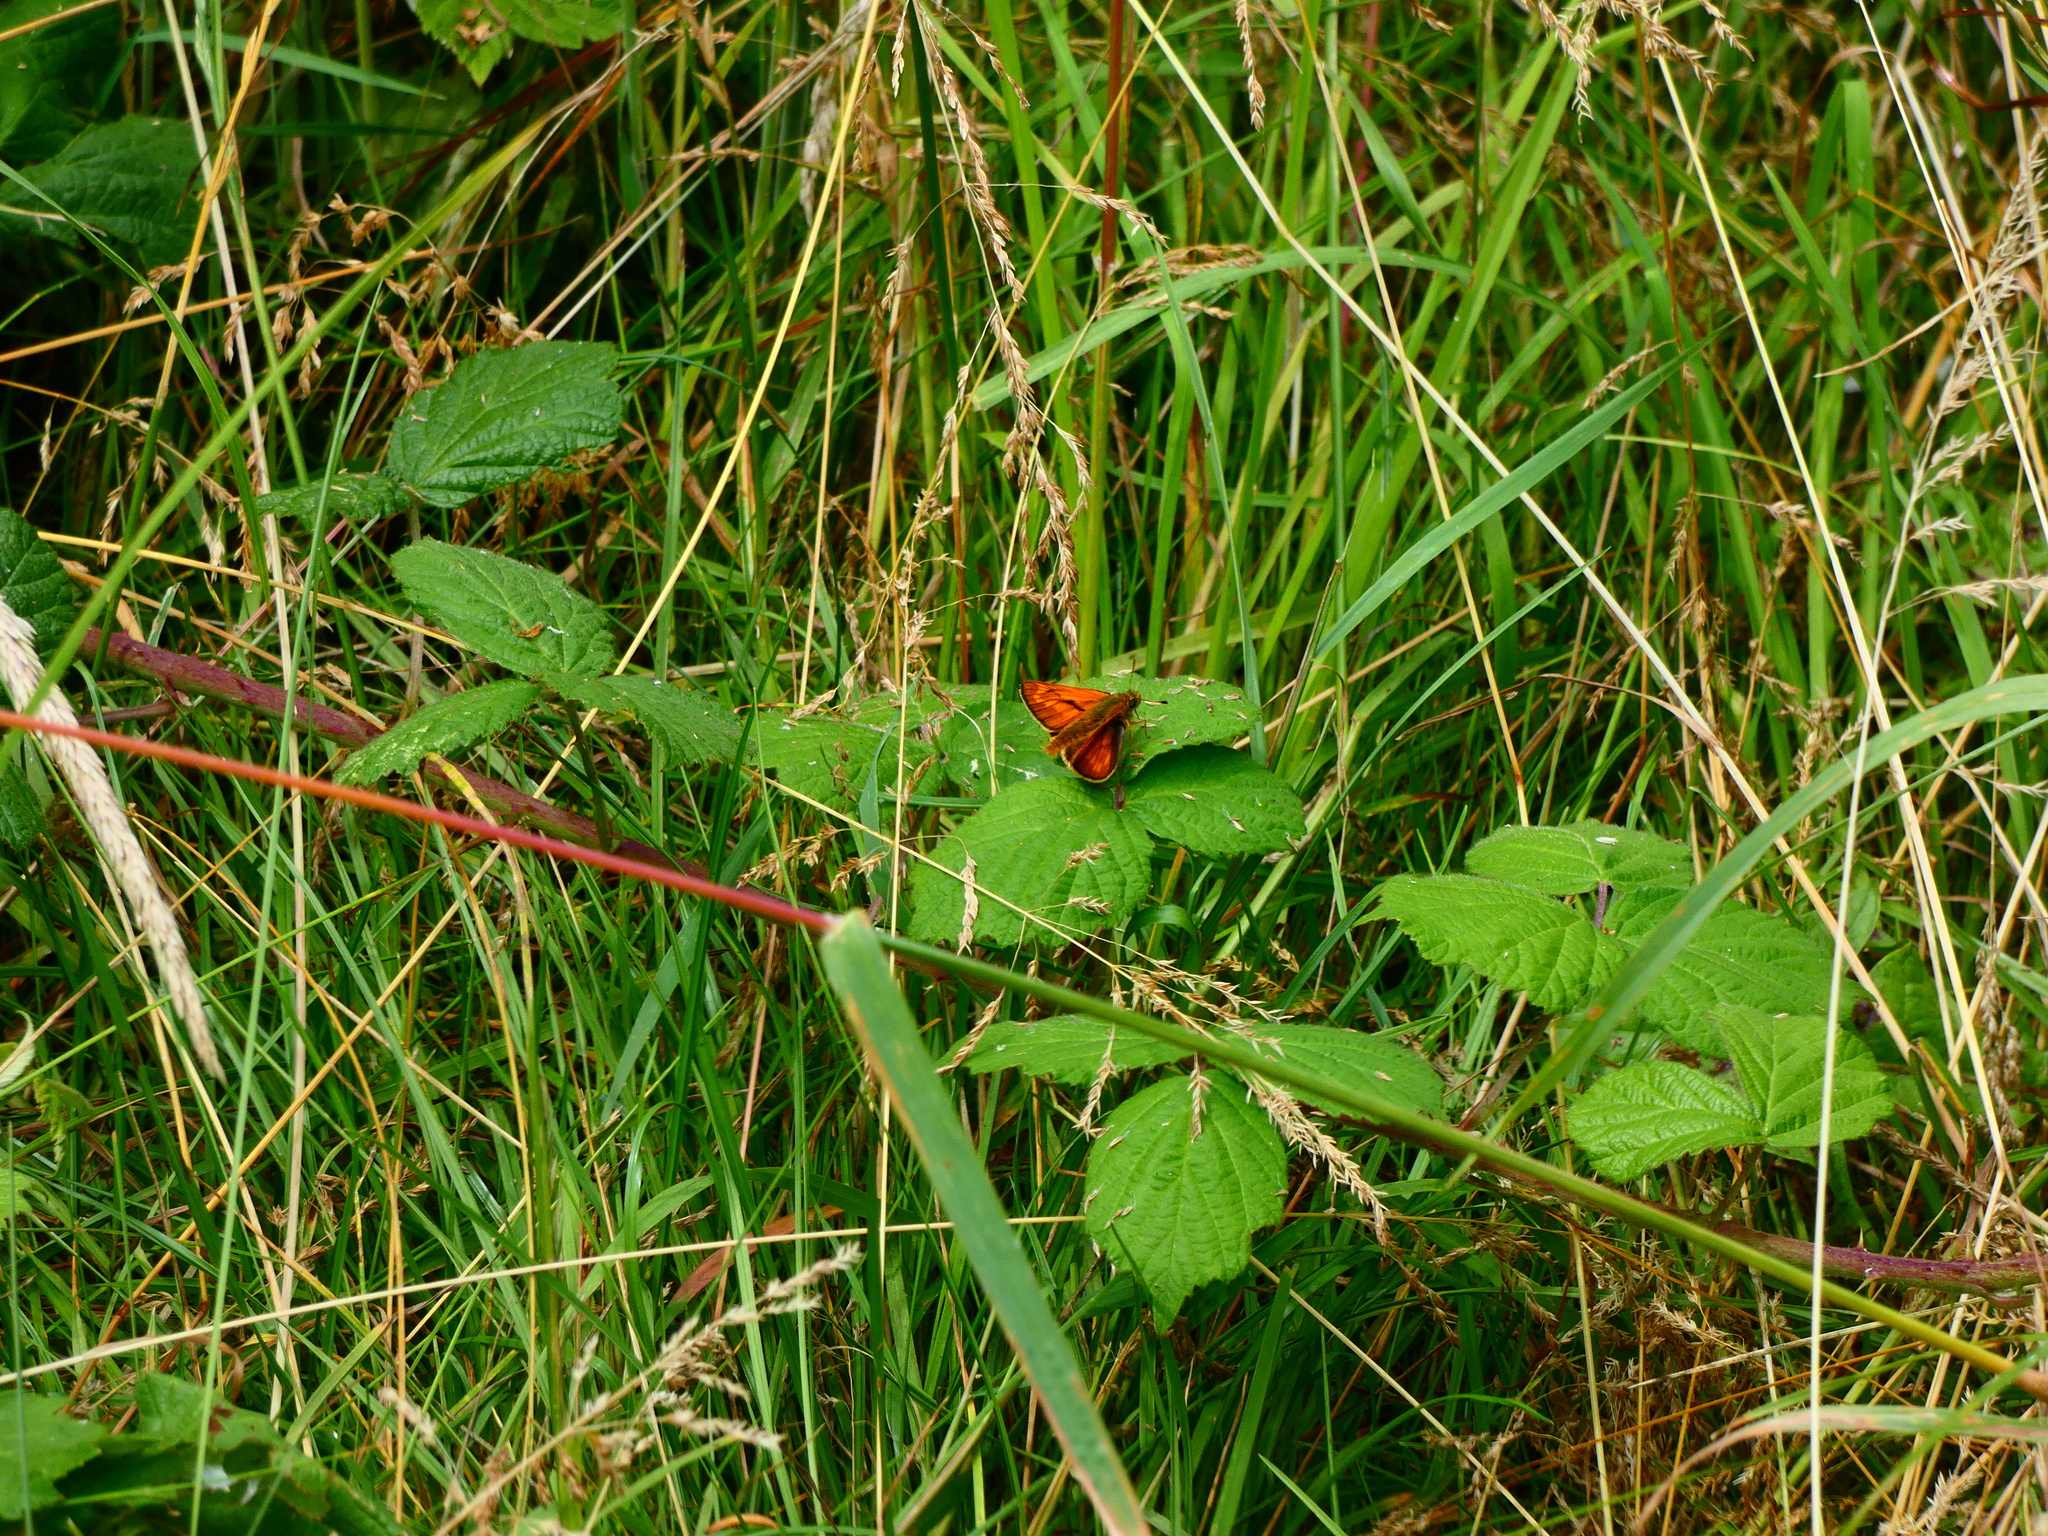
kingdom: Animalia
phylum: Arthropoda
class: Insecta
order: Lepidoptera
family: Hesperiidae
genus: Ochlodes
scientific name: Ochlodes venata
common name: Large skipper
